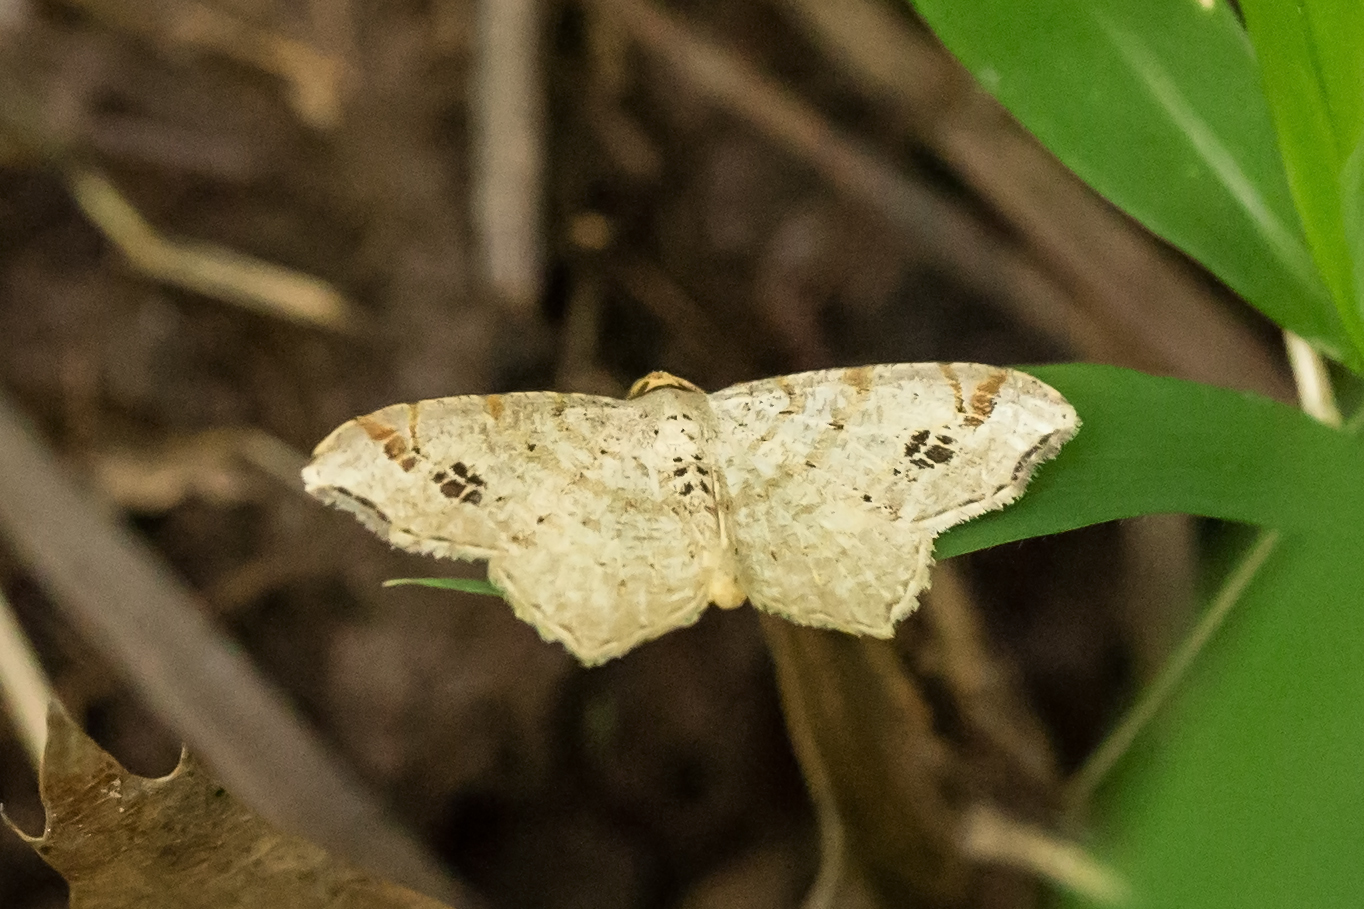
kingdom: Animalia
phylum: Arthropoda
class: Insecta
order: Lepidoptera
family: Geometridae
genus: Macaria
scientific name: Macaria aemulataria
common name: Common angle
